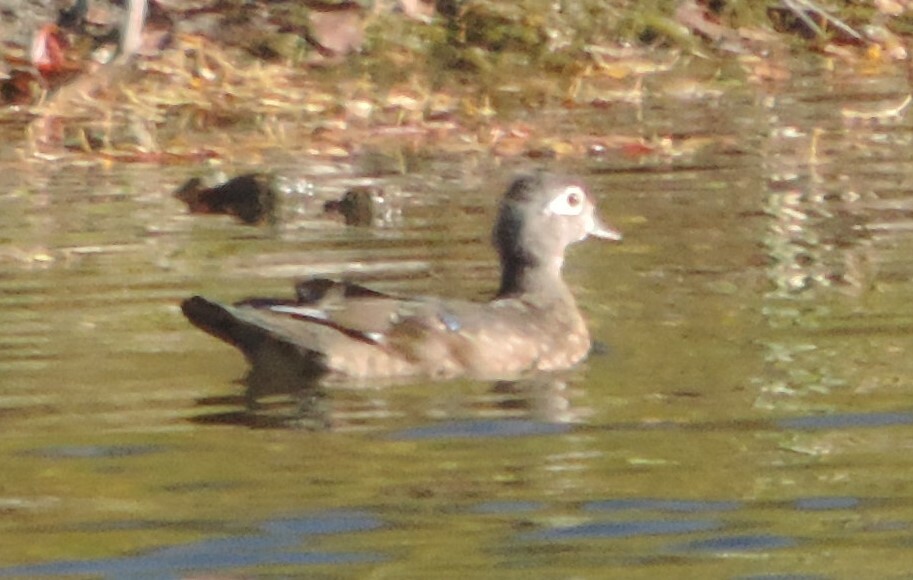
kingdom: Animalia
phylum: Chordata
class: Aves
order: Anseriformes
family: Anatidae
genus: Aix
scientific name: Aix sponsa
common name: Wood duck
